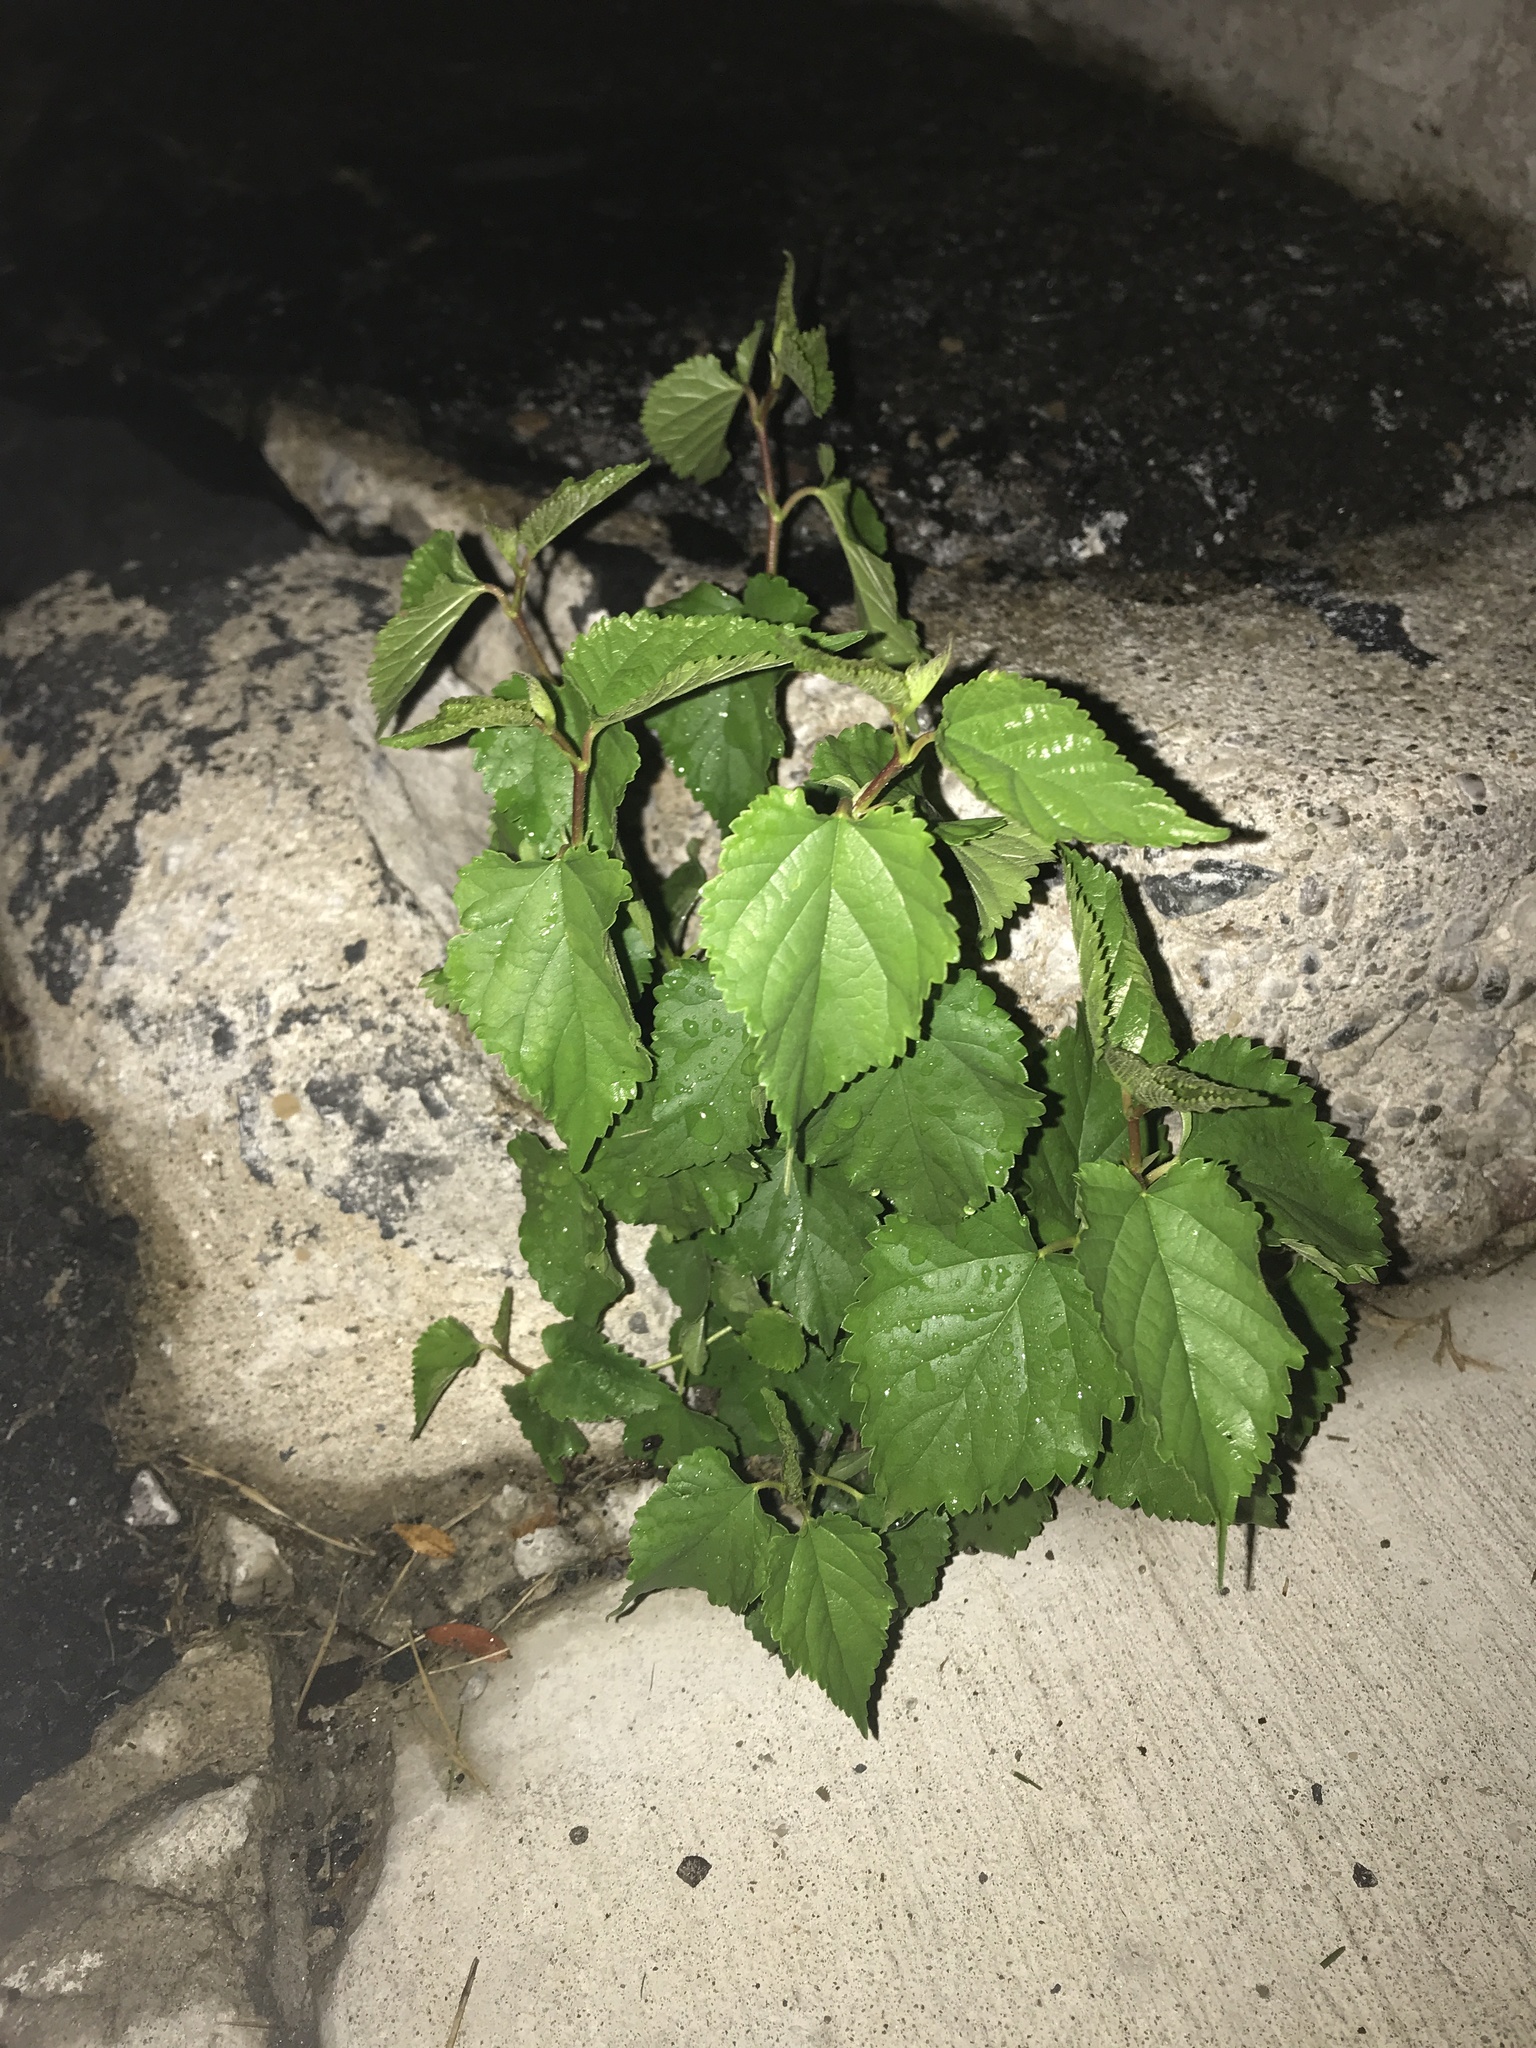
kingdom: Plantae
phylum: Tracheophyta
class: Magnoliopsida
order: Rosales
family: Moraceae
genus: Morus
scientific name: Morus alba
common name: White mulberry
